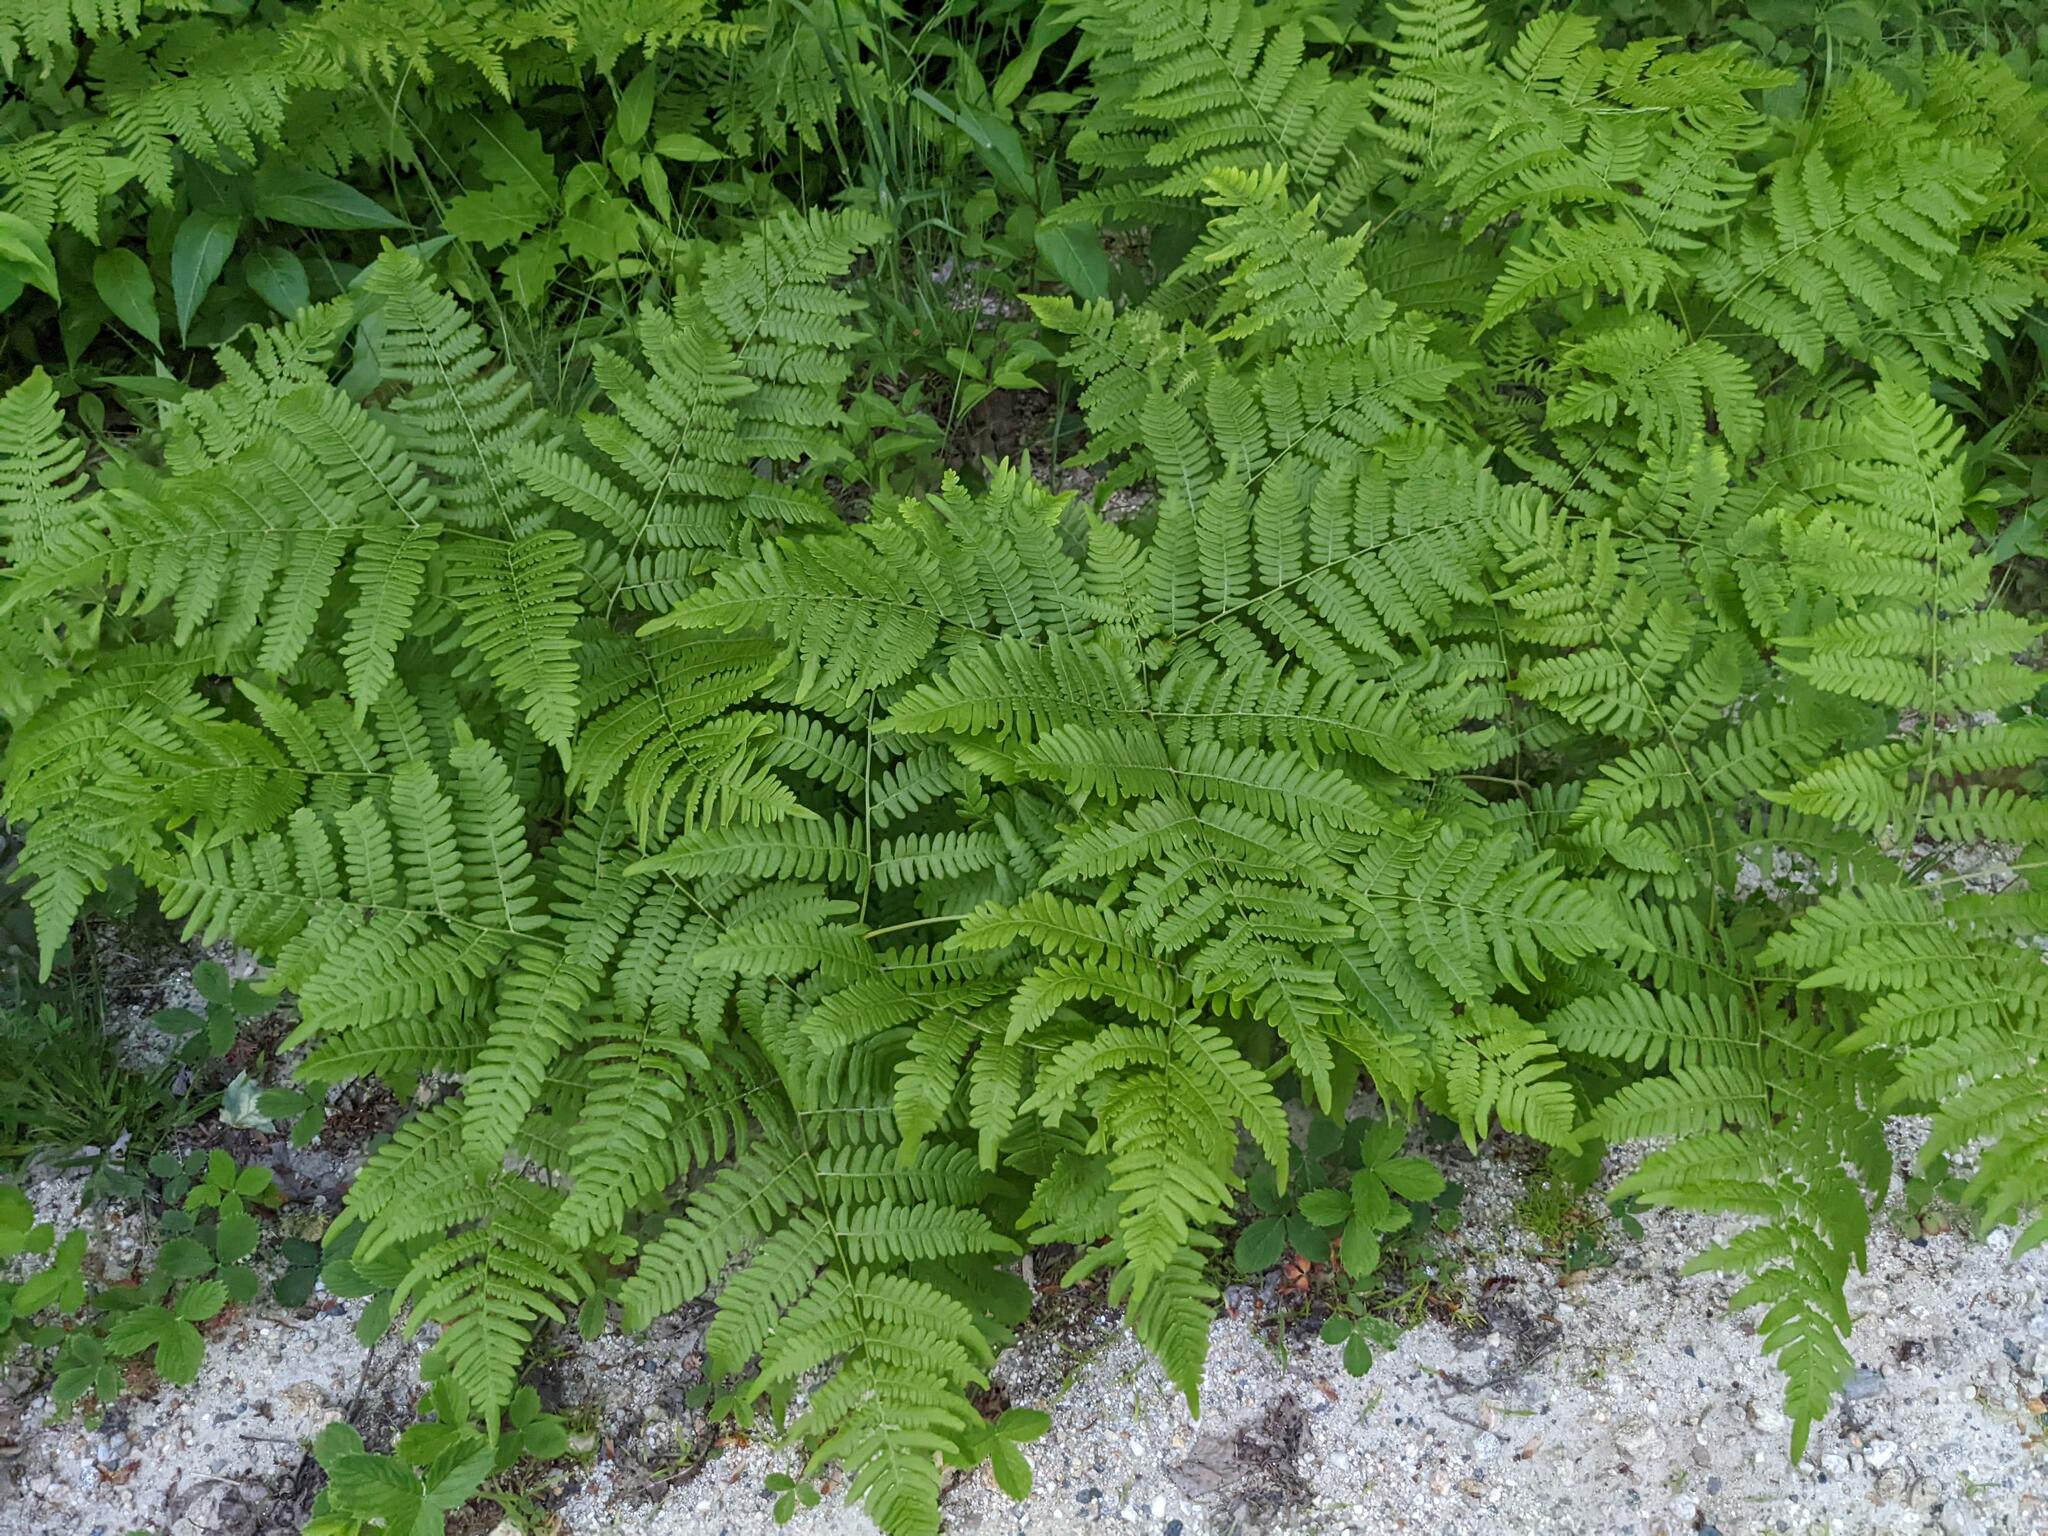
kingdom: Plantae
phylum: Tracheophyta
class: Polypodiopsida
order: Polypodiales
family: Dennstaedtiaceae
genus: Pteridium
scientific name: Pteridium aquilinum
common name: Bracken
